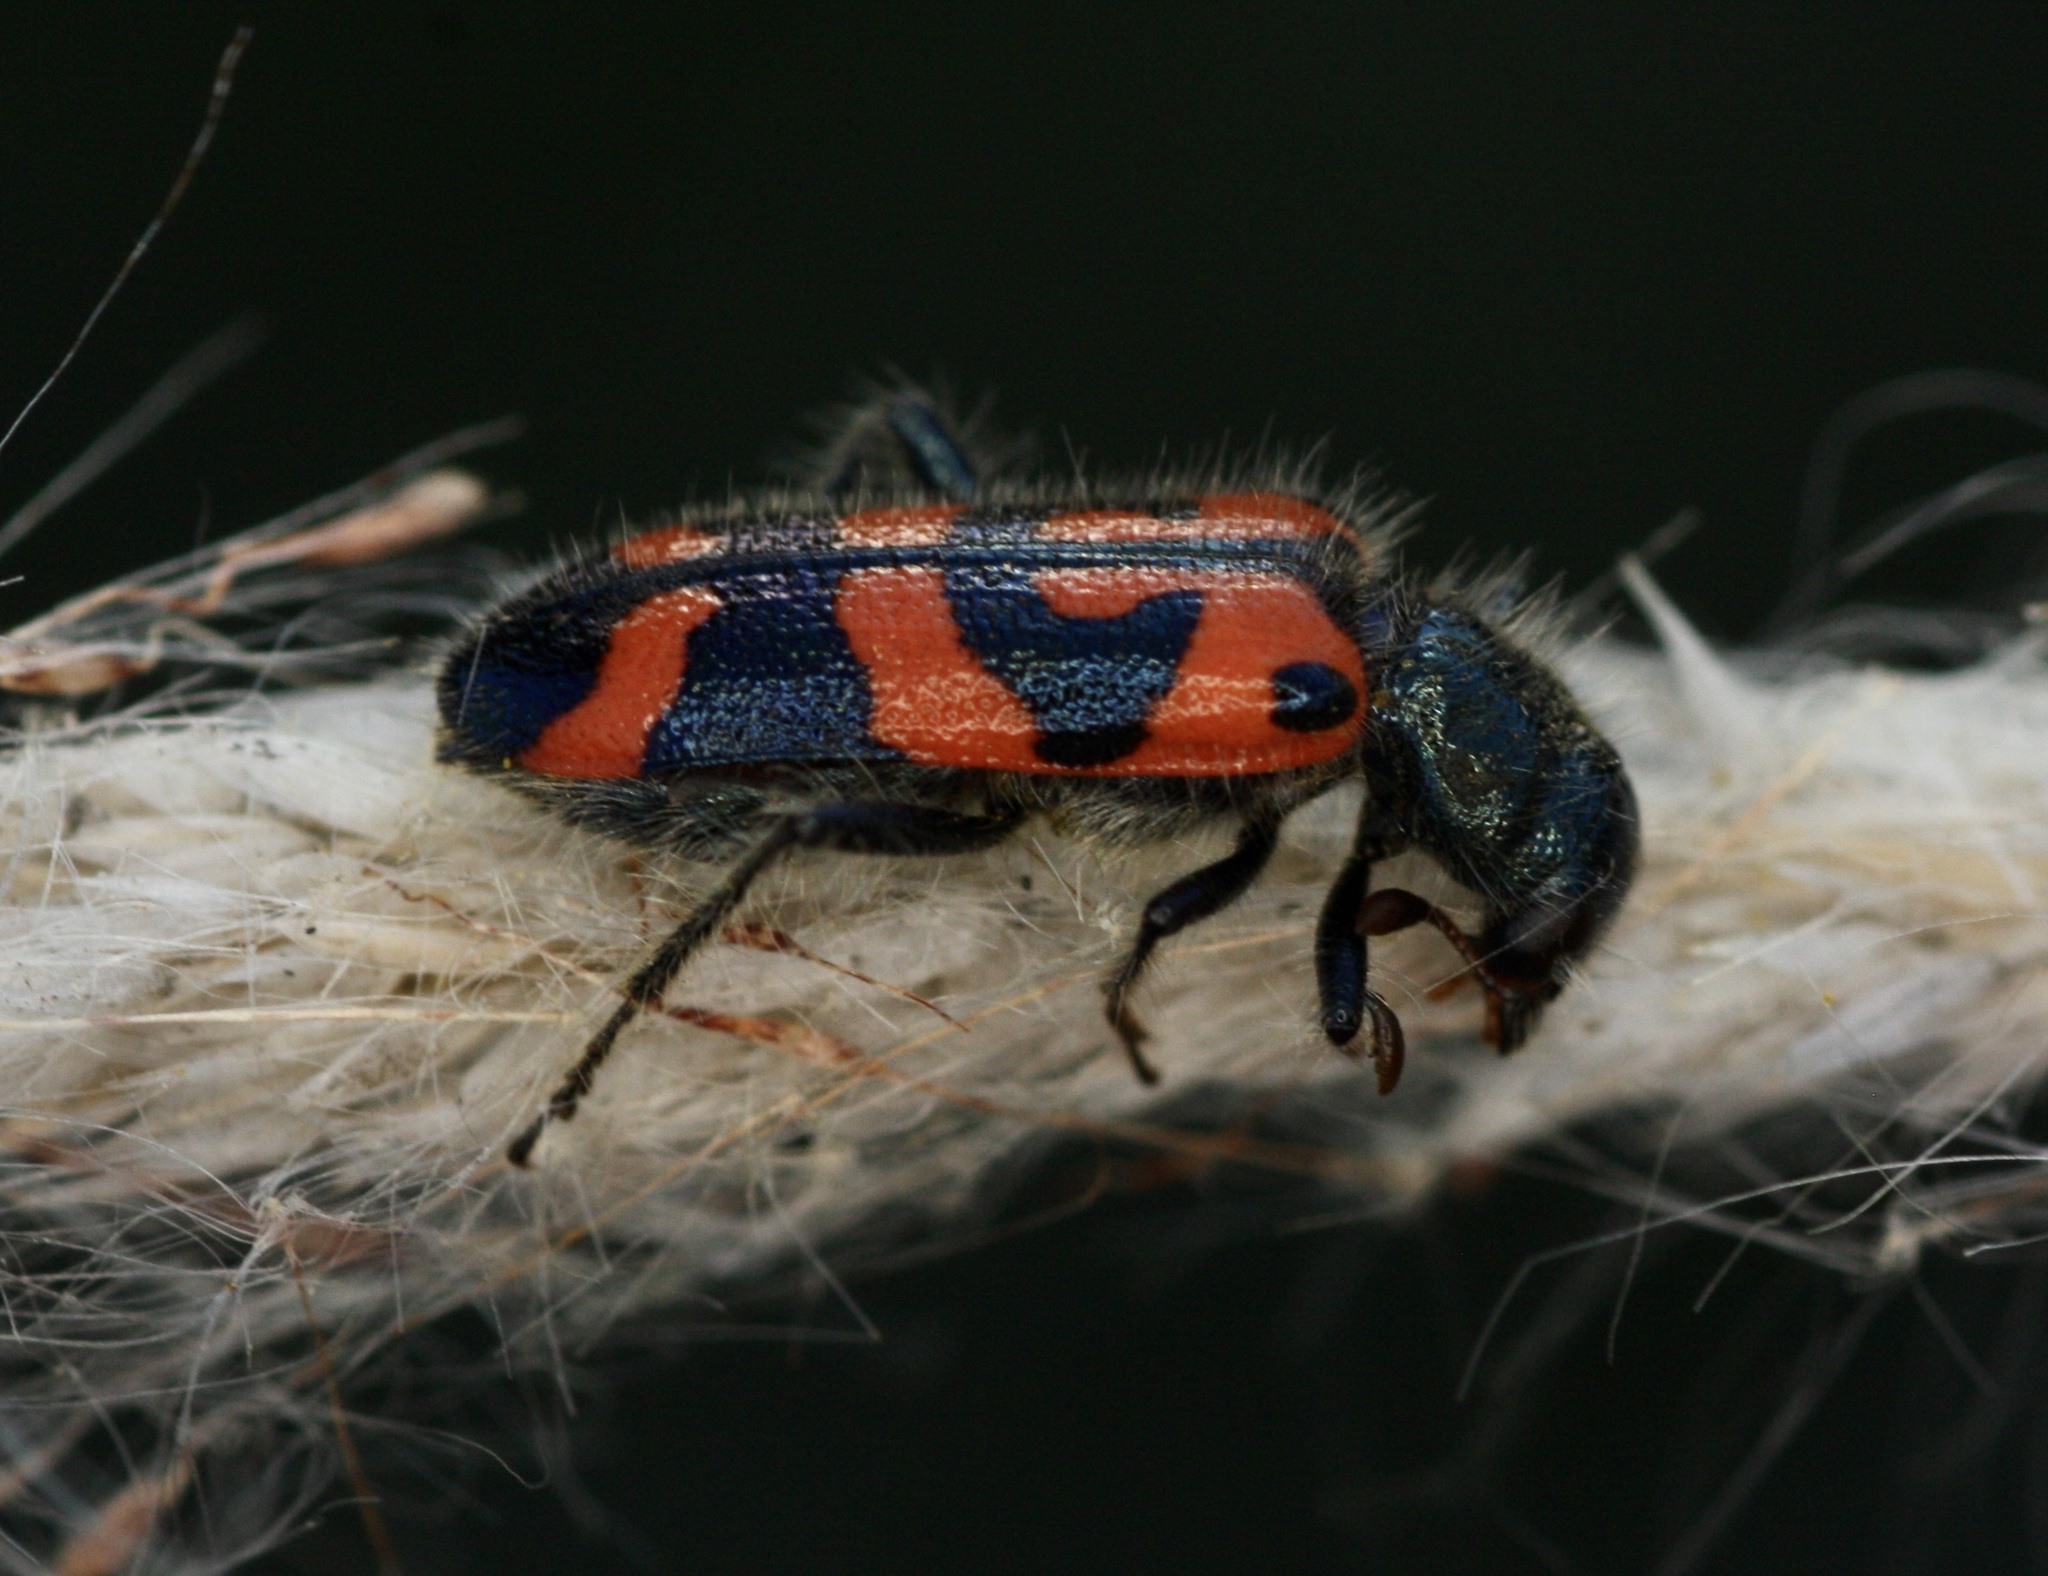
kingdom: Animalia
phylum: Arthropoda
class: Insecta
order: Coleoptera
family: Cleridae
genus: Trichodes
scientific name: Trichodes ornatus
